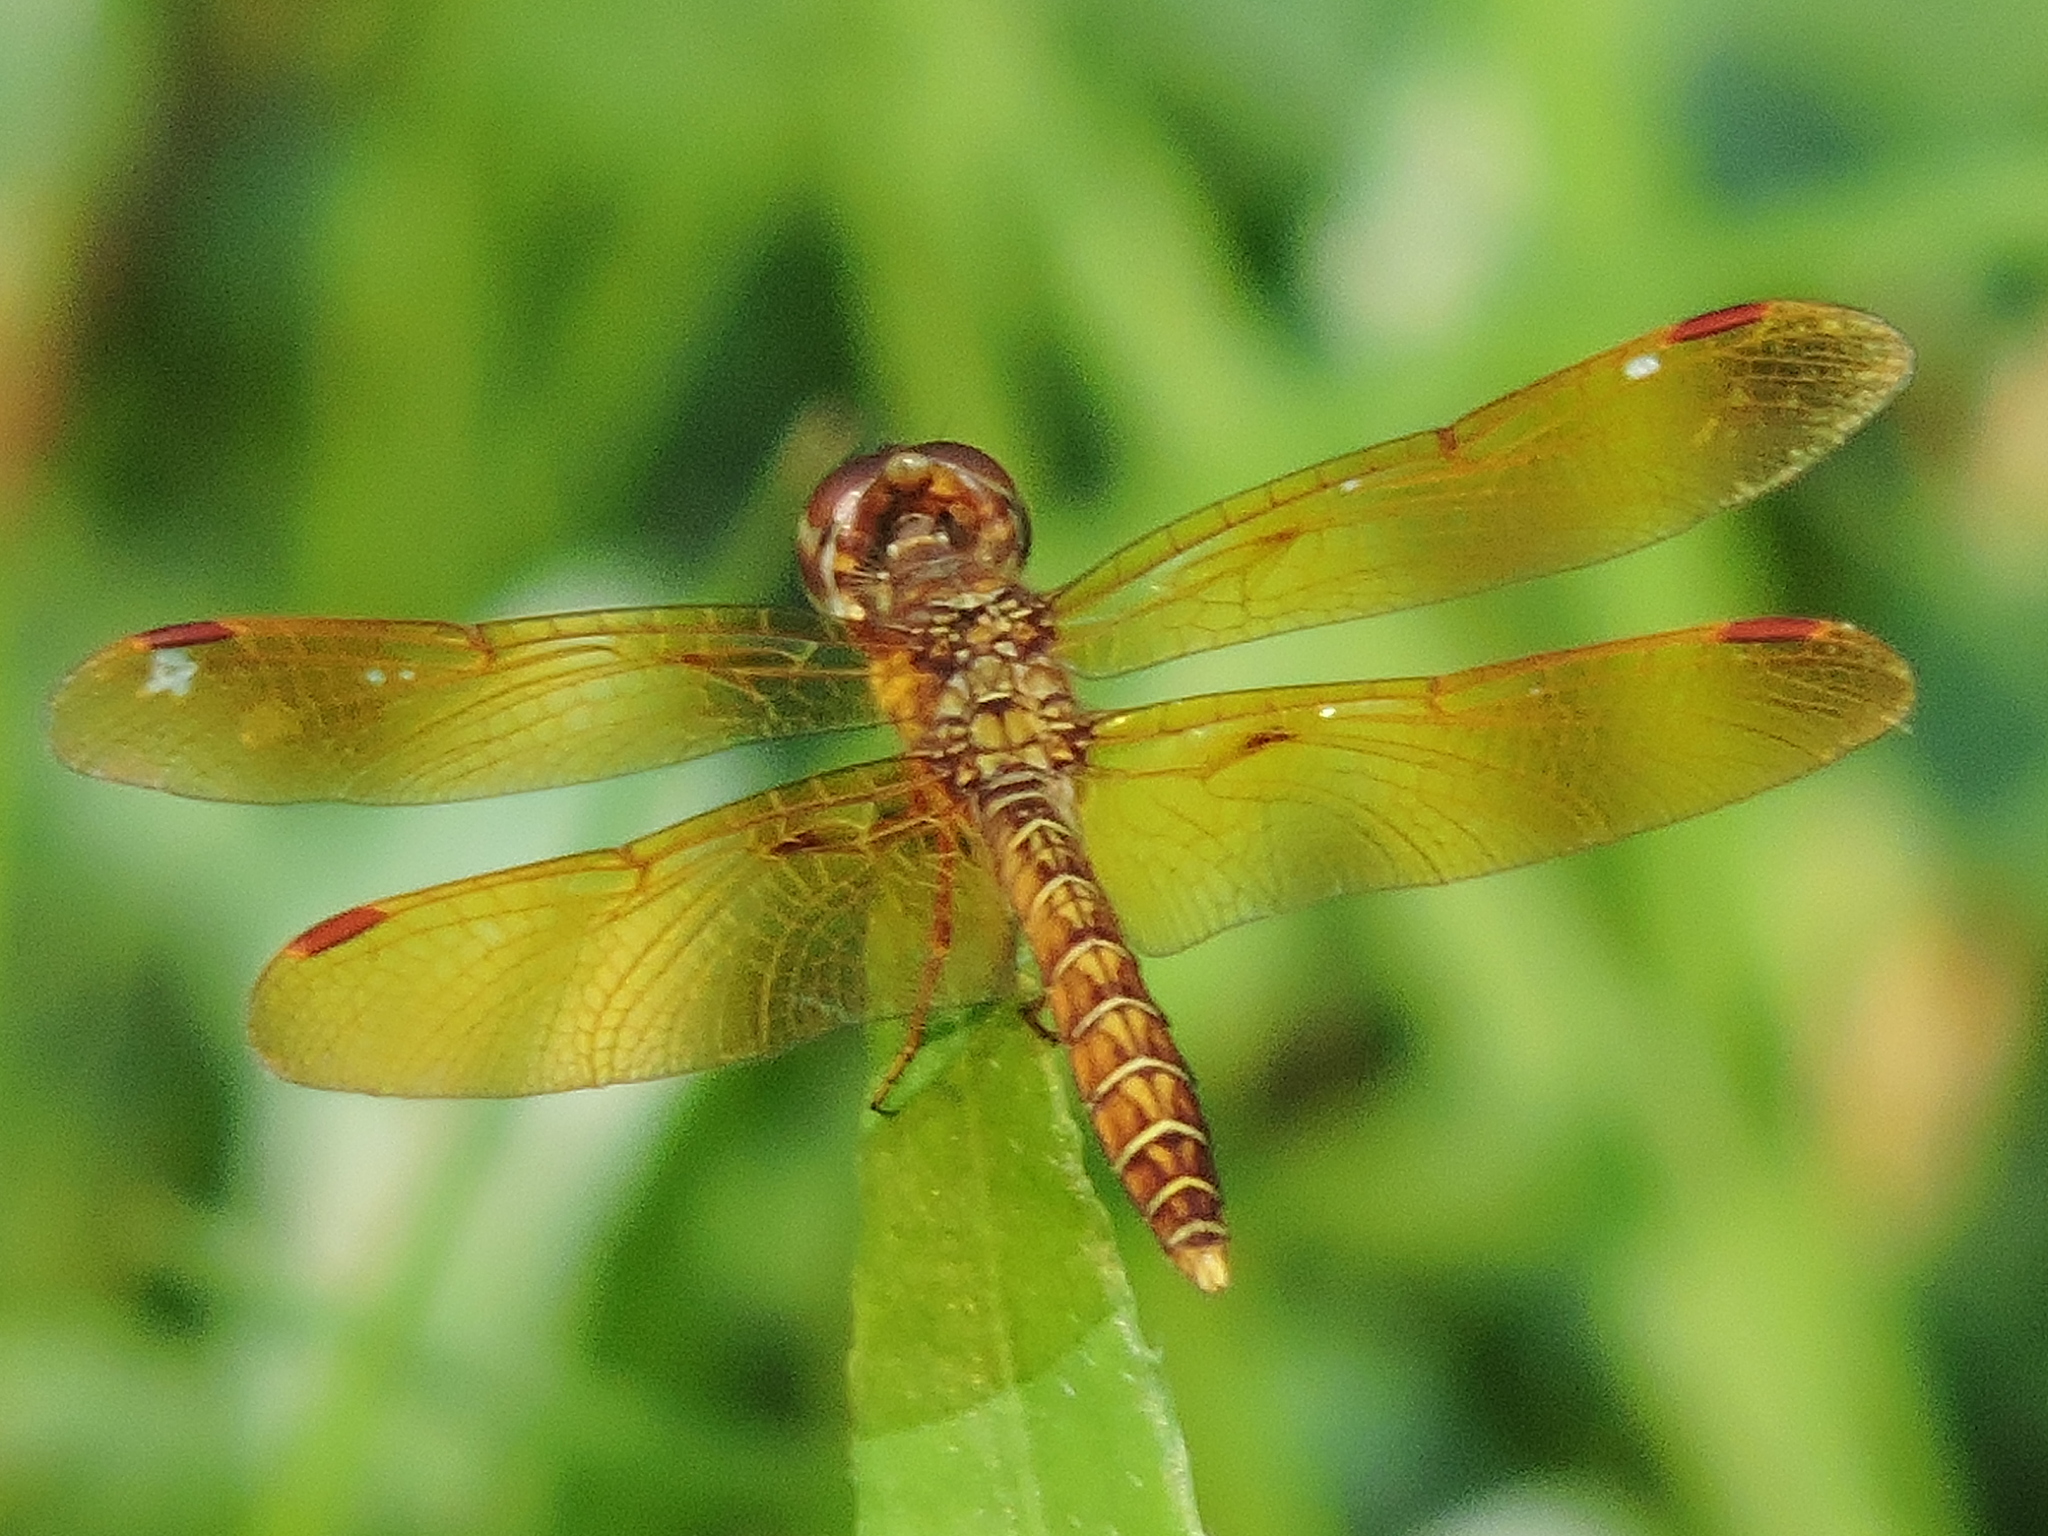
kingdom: Animalia
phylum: Arthropoda
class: Insecta
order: Odonata
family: Libellulidae
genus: Perithemis
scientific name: Perithemis tenera
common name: Eastern amberwing
